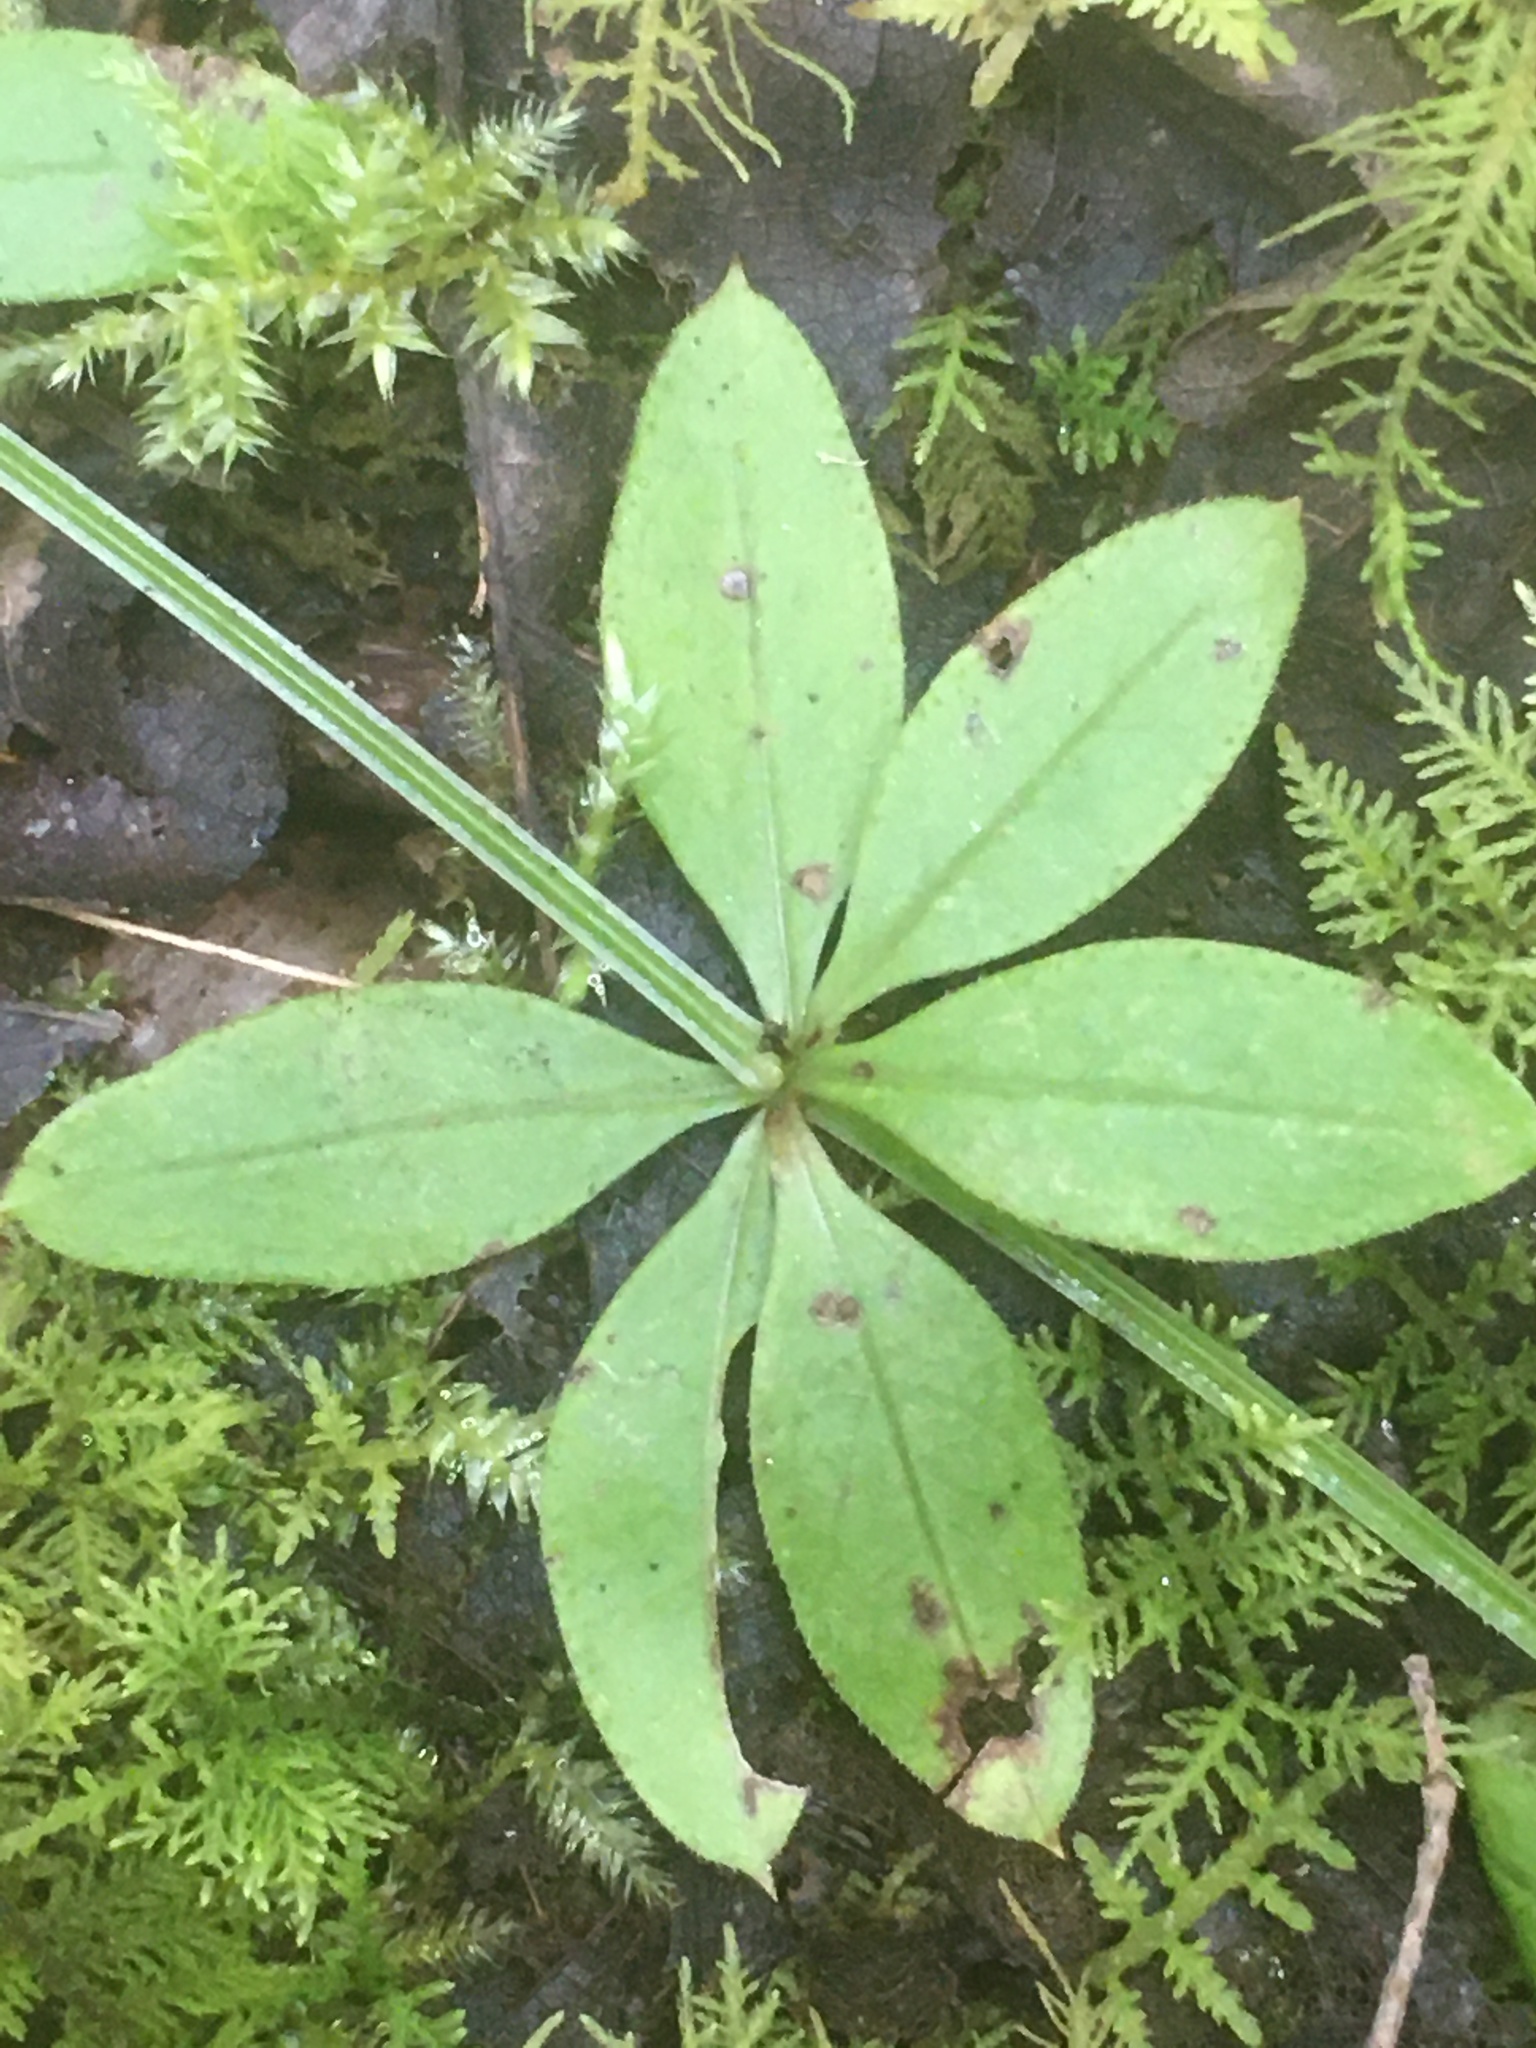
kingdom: Plantae
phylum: Tracheophyta
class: Magnoliopsida
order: Gentianales
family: Rubiaceae
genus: Galium
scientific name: Galium triflorum
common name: Fragrant bedstraw
